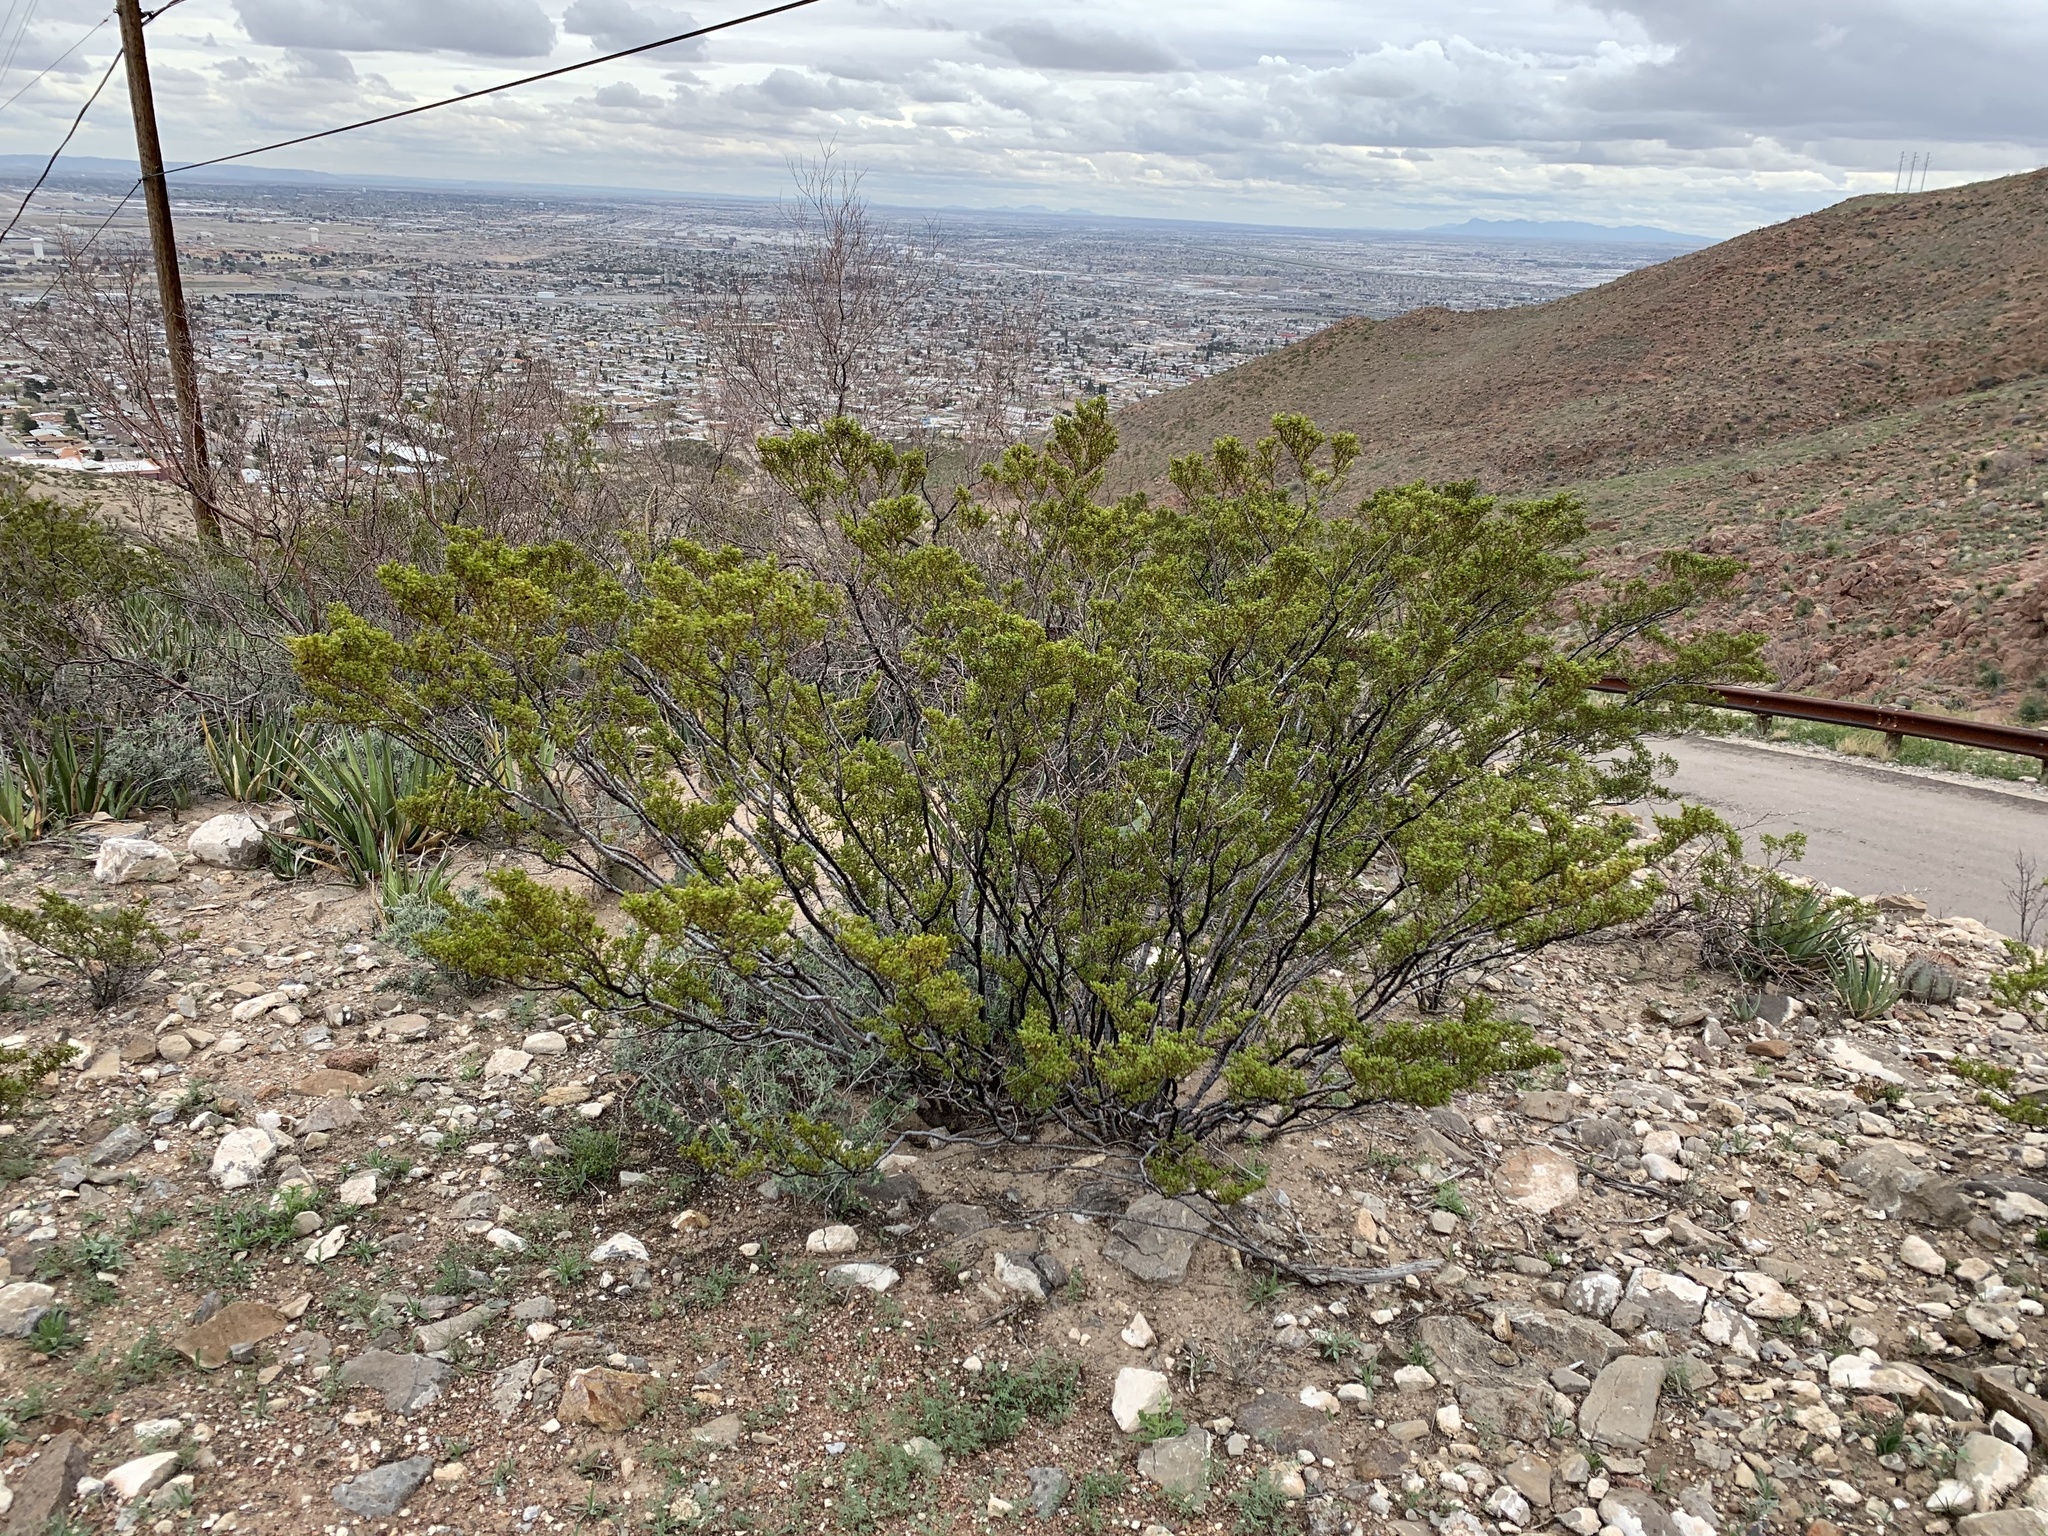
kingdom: Plantae
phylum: Tracheophyta
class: Magnoliopsida
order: Zygophyllales
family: Zygophyllaceae
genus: Larrea
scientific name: Larrea tridentata
